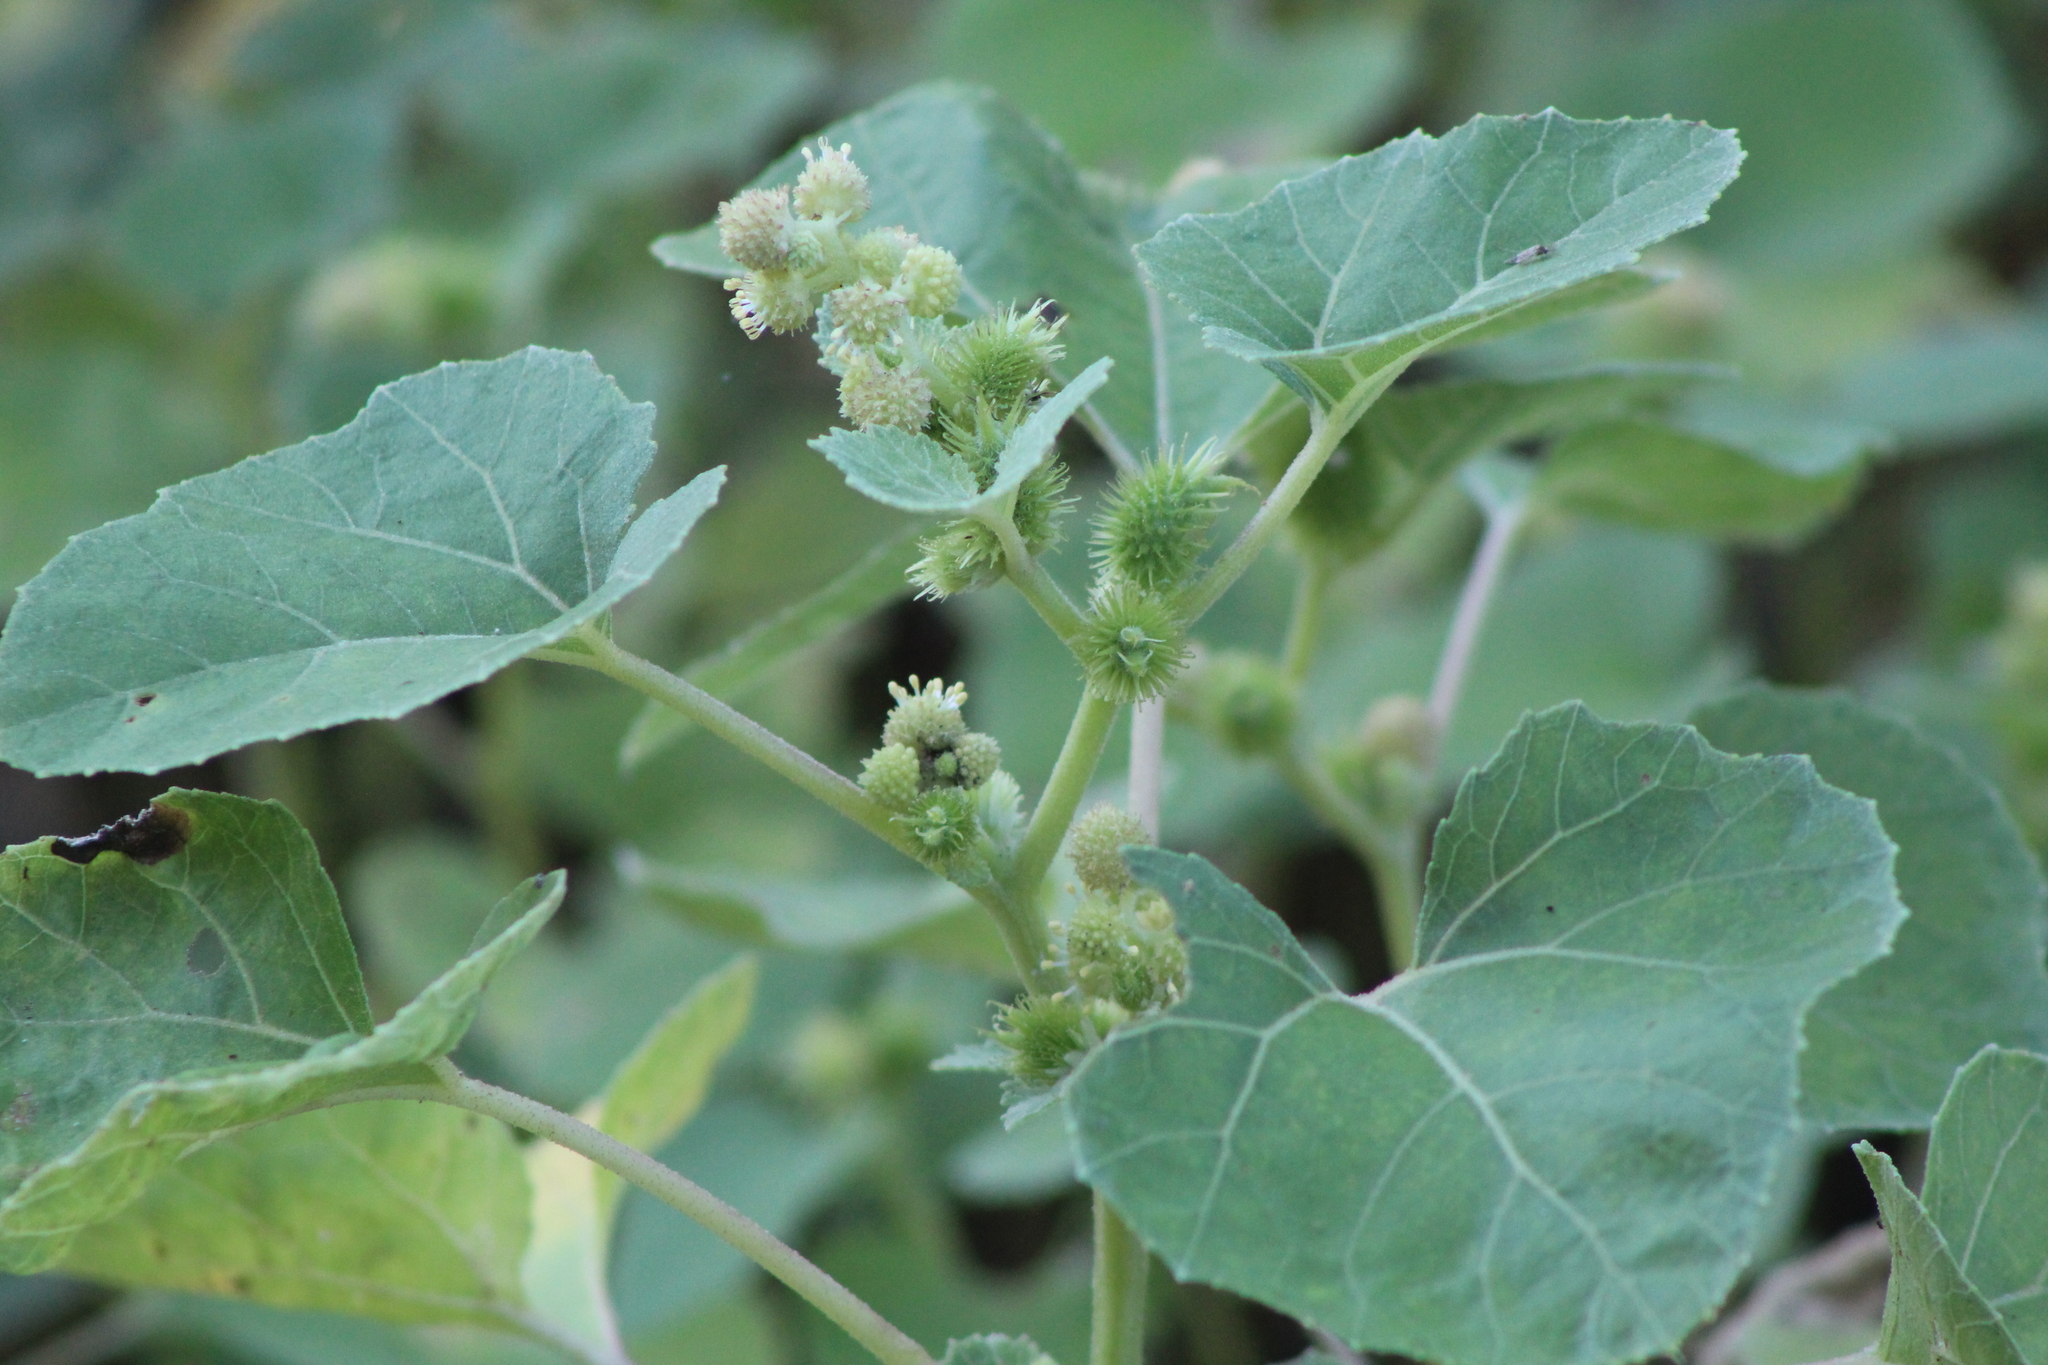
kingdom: Plantae
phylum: Tracheophyta
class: Magnoliopsida
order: Asterales
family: Asteraceae
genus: Xanthium
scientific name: Xanthium strumarium
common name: Rough cocklebur
